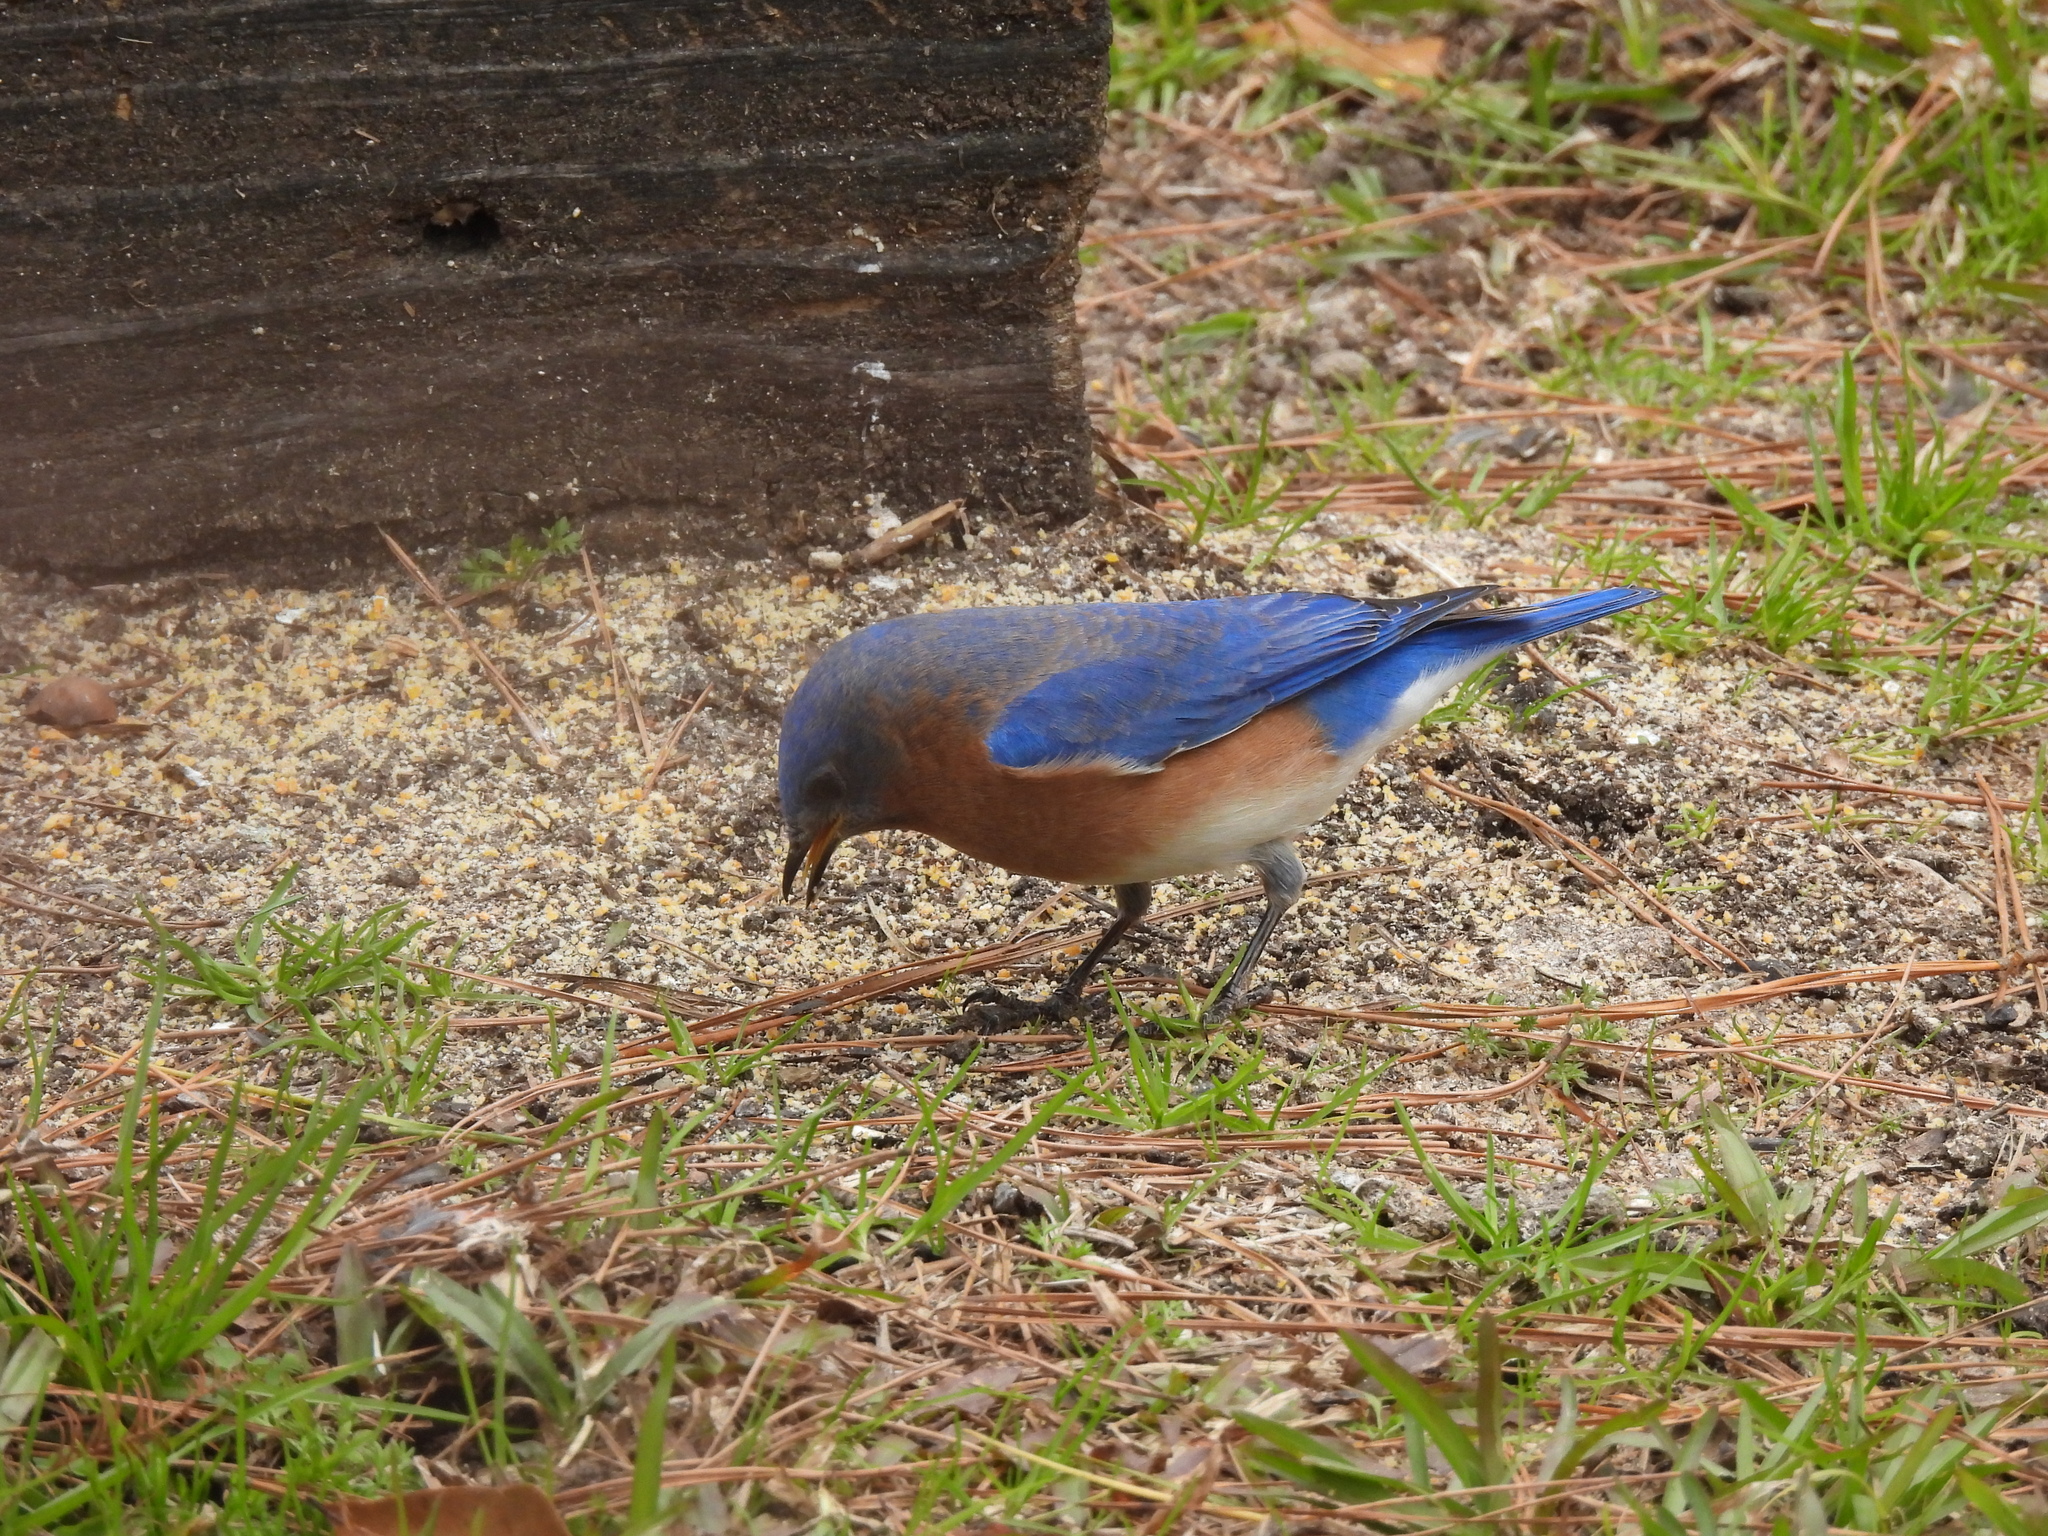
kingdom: Animalia
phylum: Chordata
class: Aves
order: Passeriformes
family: Turdidae
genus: Sialia
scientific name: Sialia sialis
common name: Eastern bluebird
